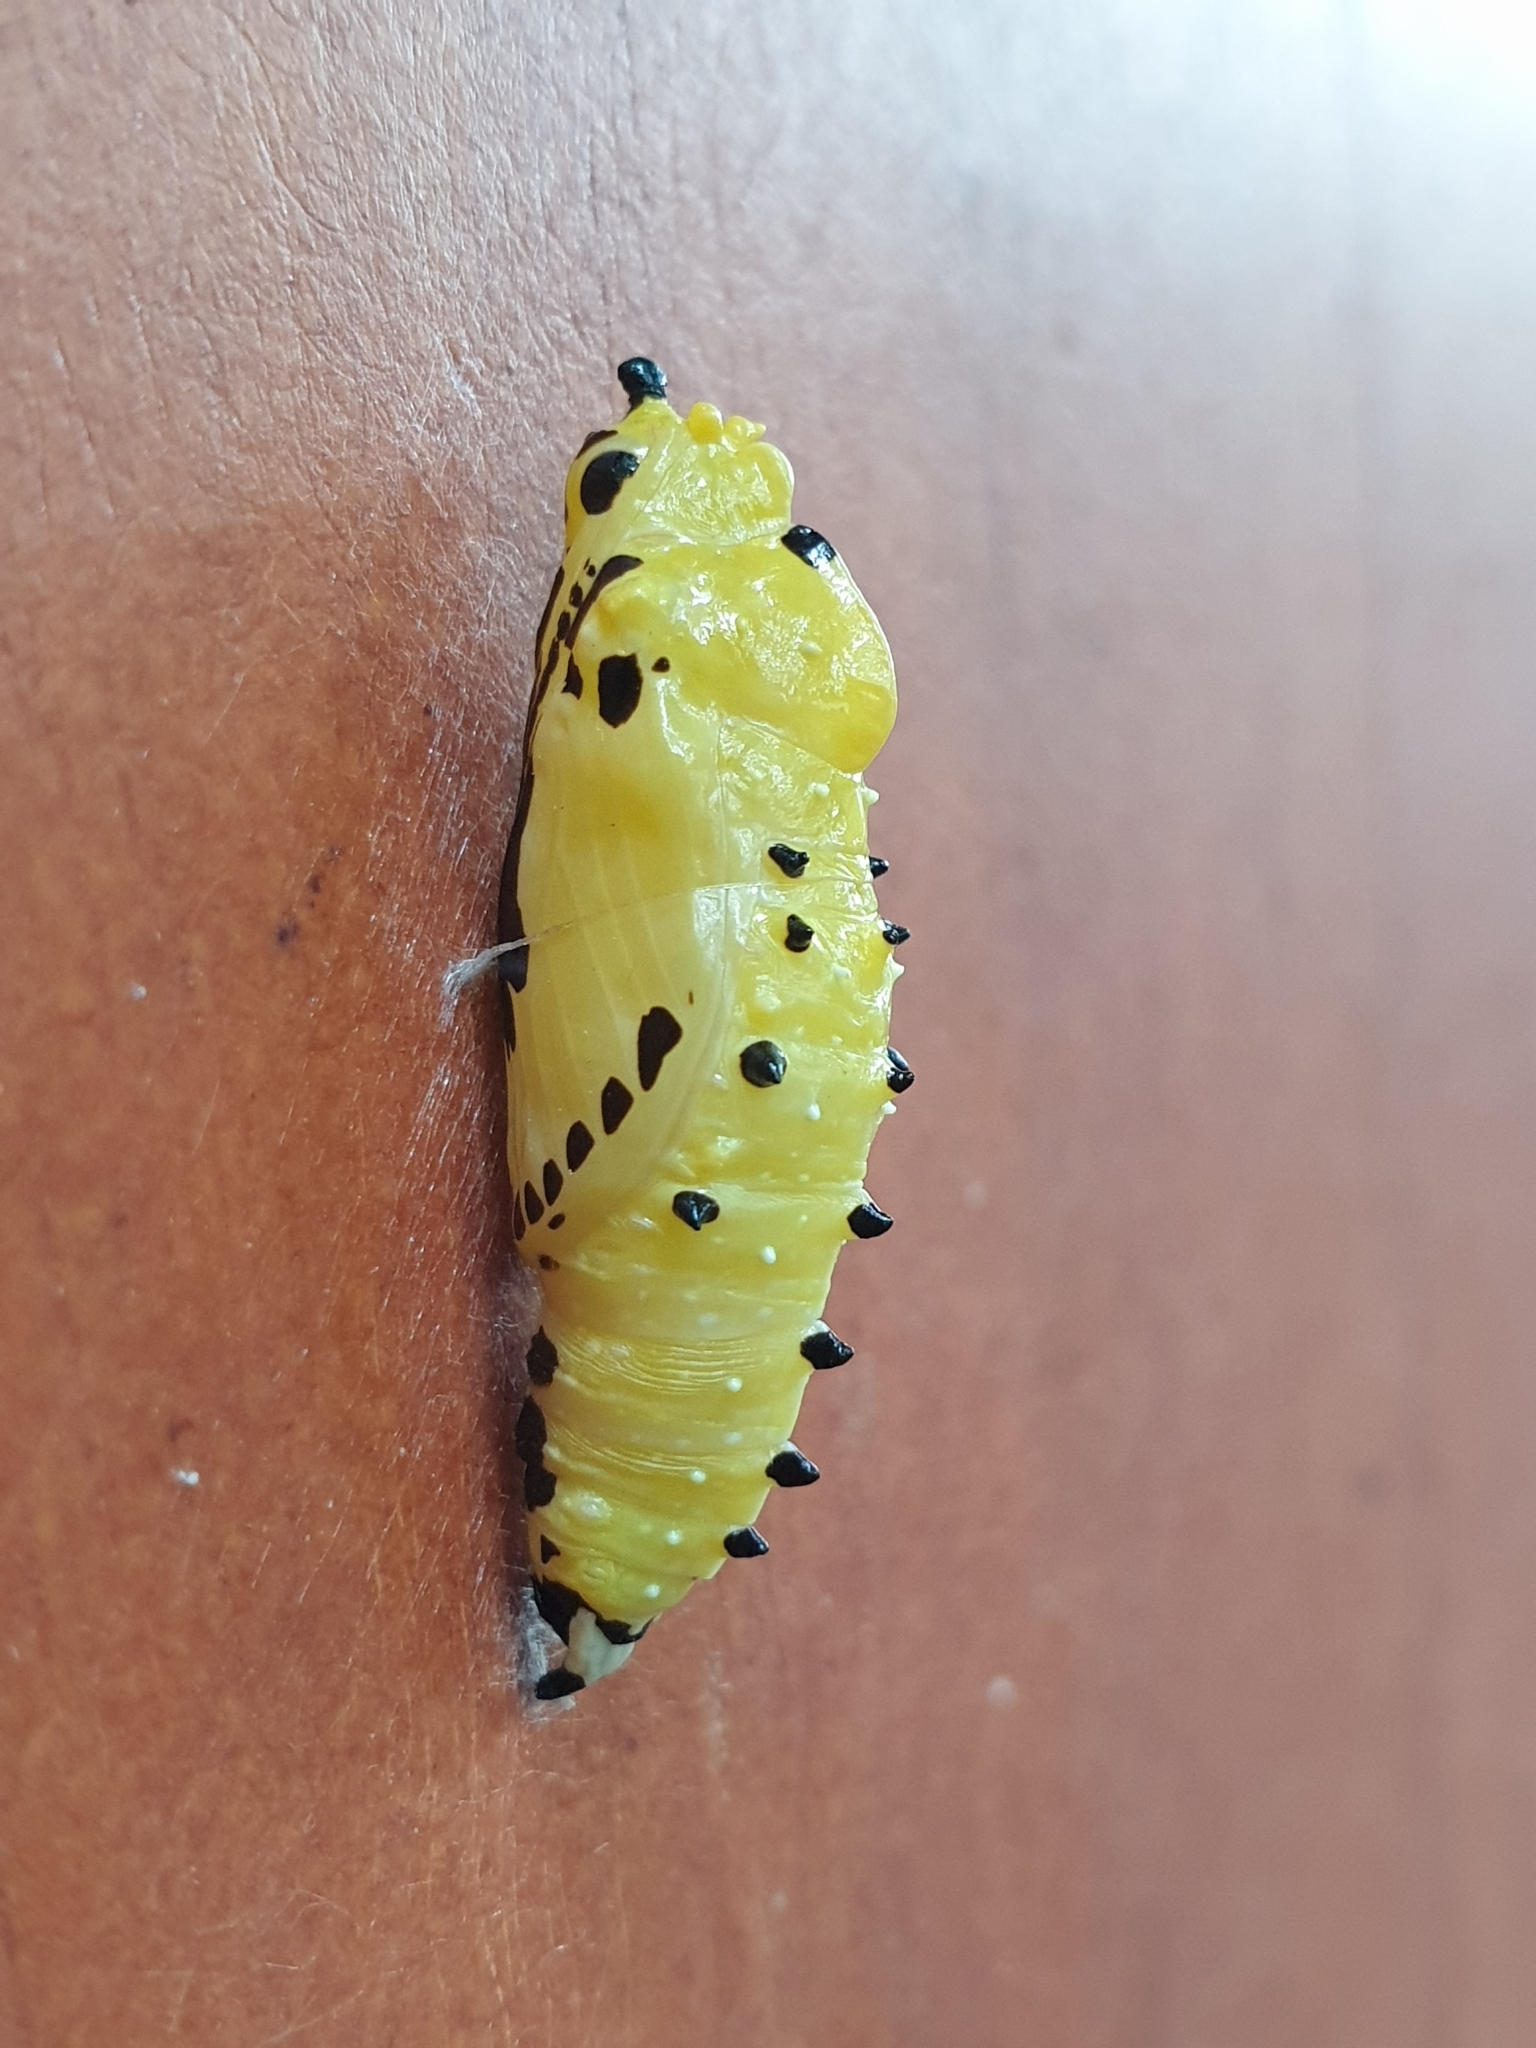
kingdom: Animalia
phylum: Arthropoda
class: Insecta
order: Lepidoptera
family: Pieridae
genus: Delias
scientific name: Delias eucharis
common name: Common jezebel
